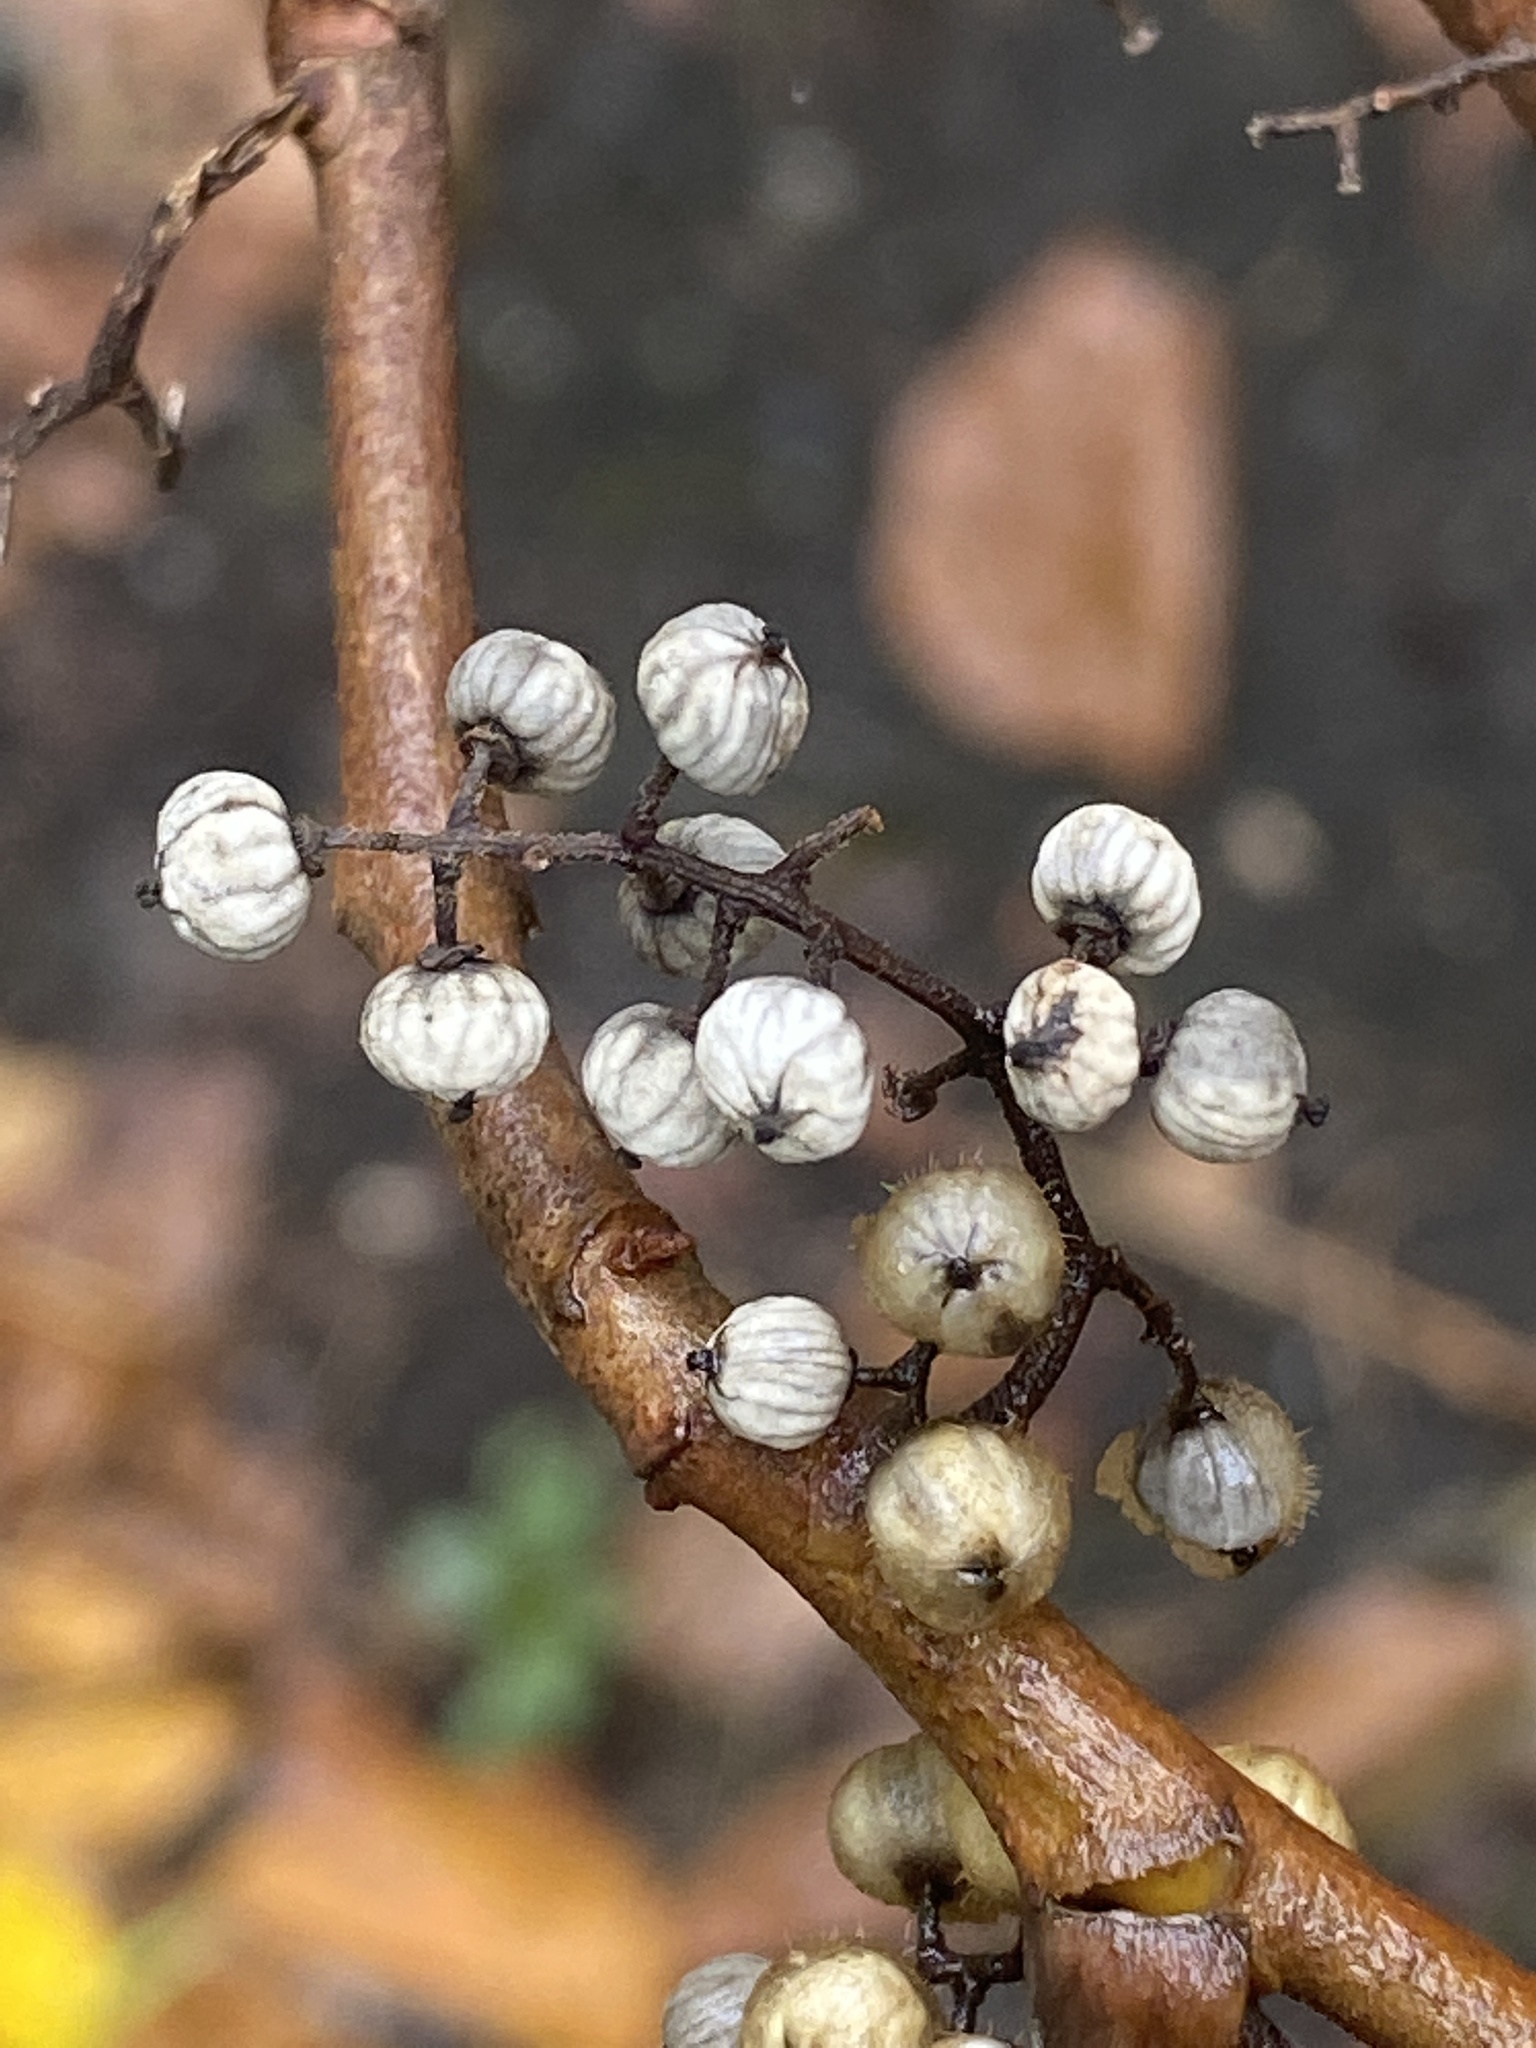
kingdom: Plantae
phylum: Tracheophyta
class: Magnoliopsida
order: Sapindales
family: Anacardiaceae
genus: Toxicodendron
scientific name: Toxicodendron radicans
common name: Poison ivy
